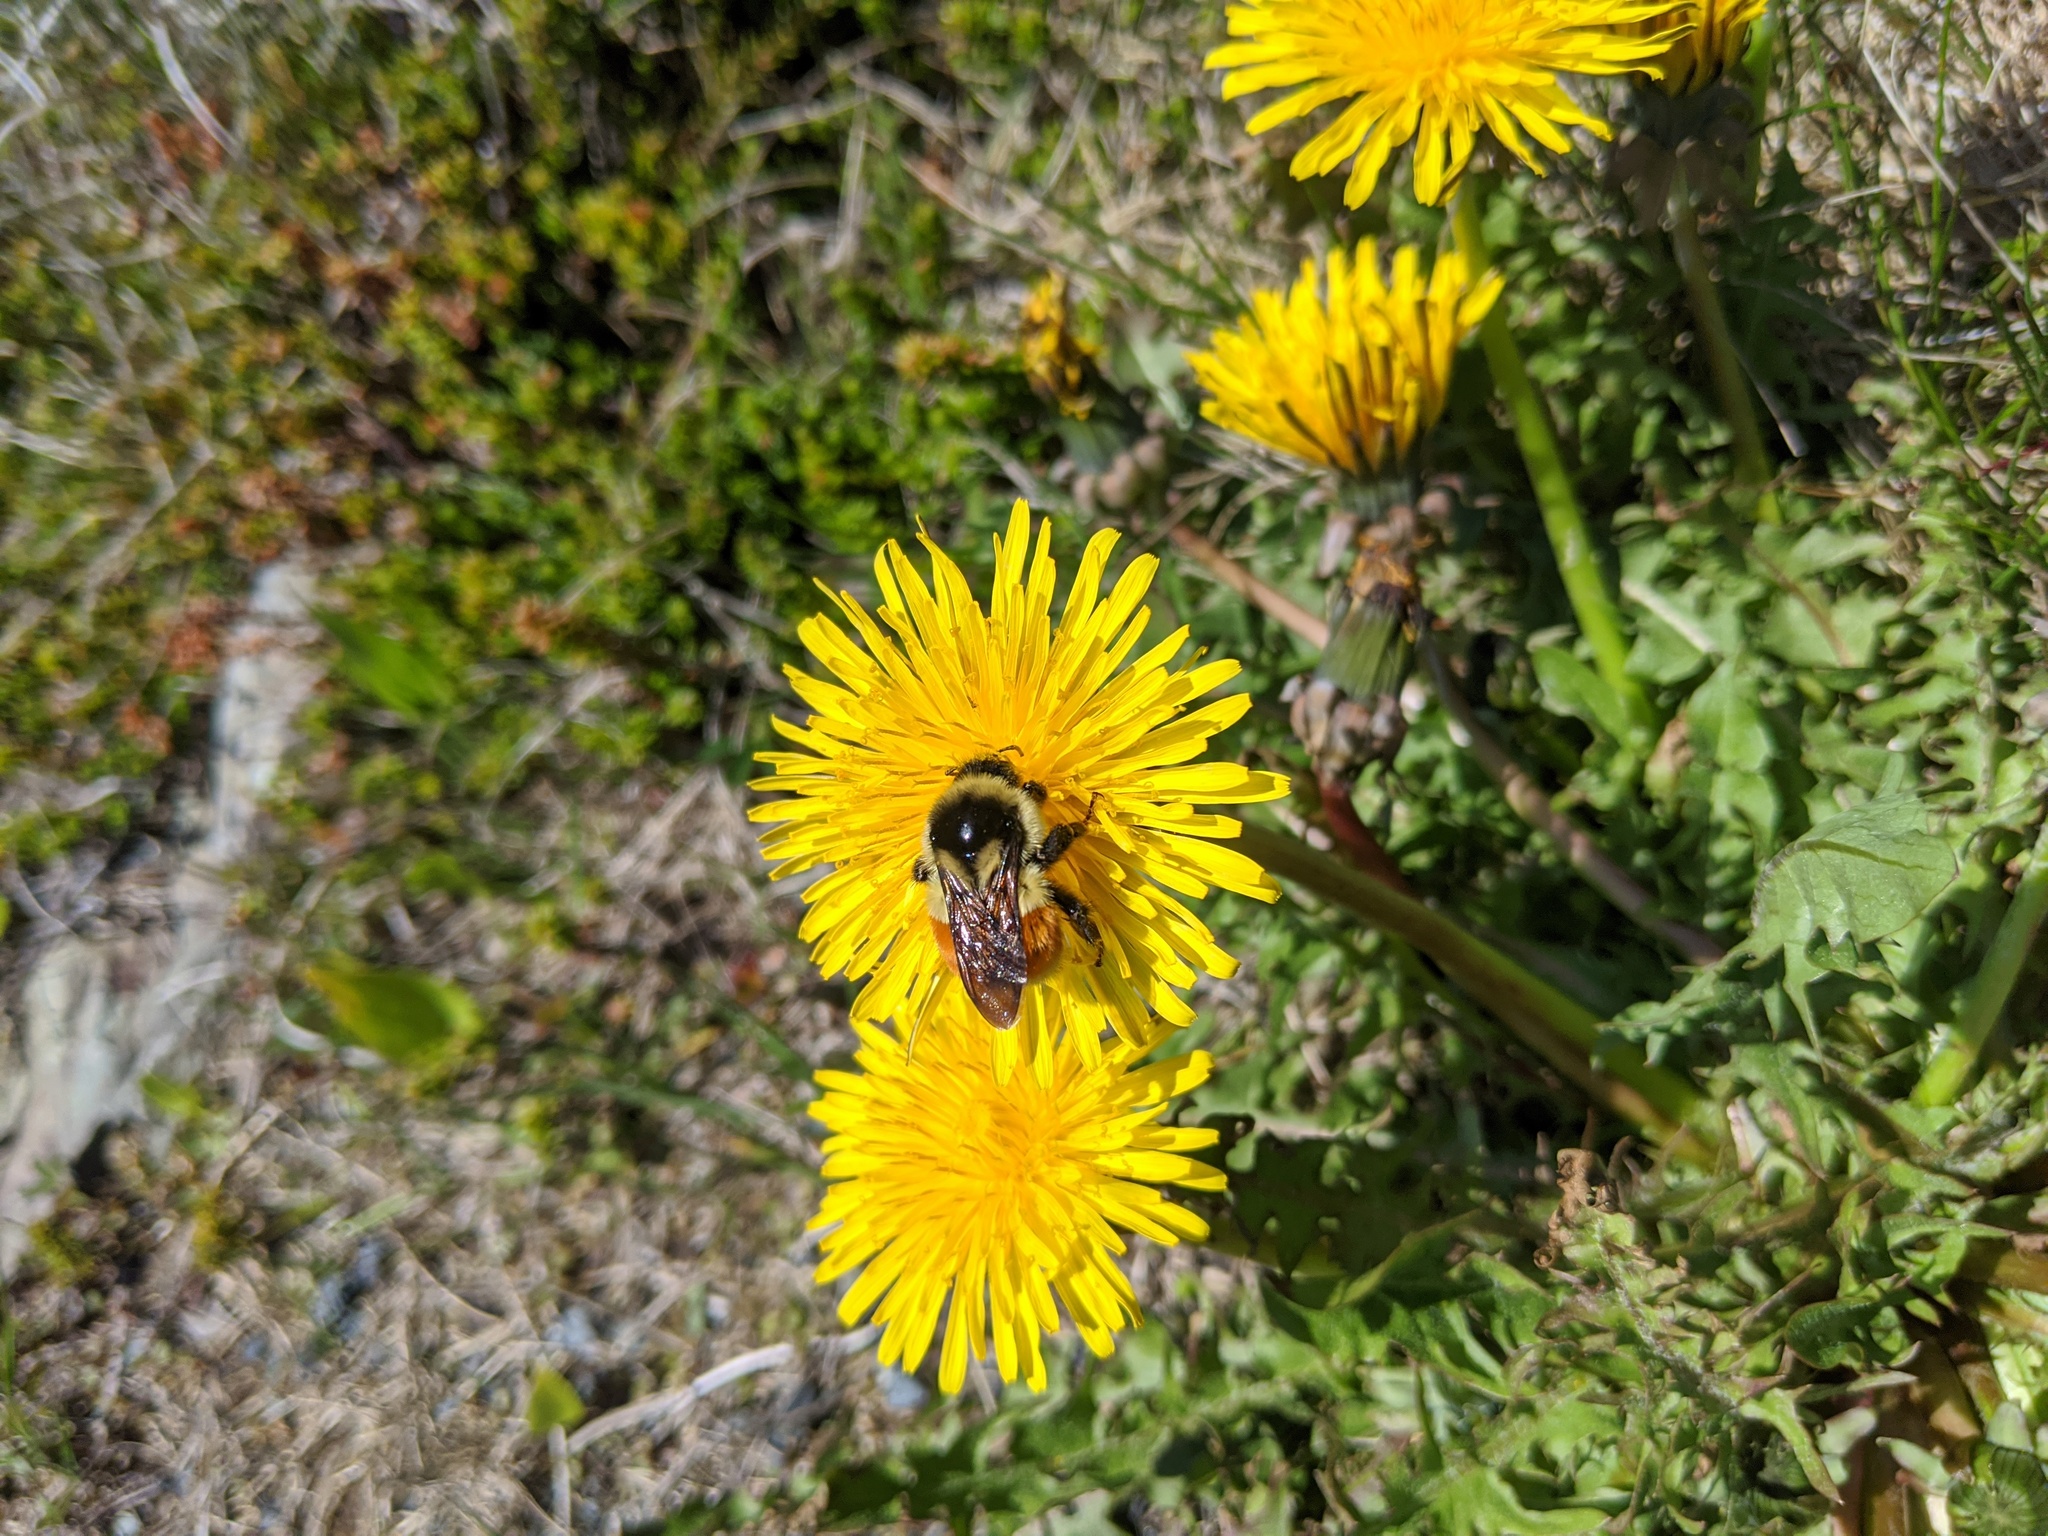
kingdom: Animalia
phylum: Arthropoda
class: Insecta
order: Hymenoptera
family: Apidae
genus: Bombus
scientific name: Bombus ternarius
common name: Tri-colored bumble bee
